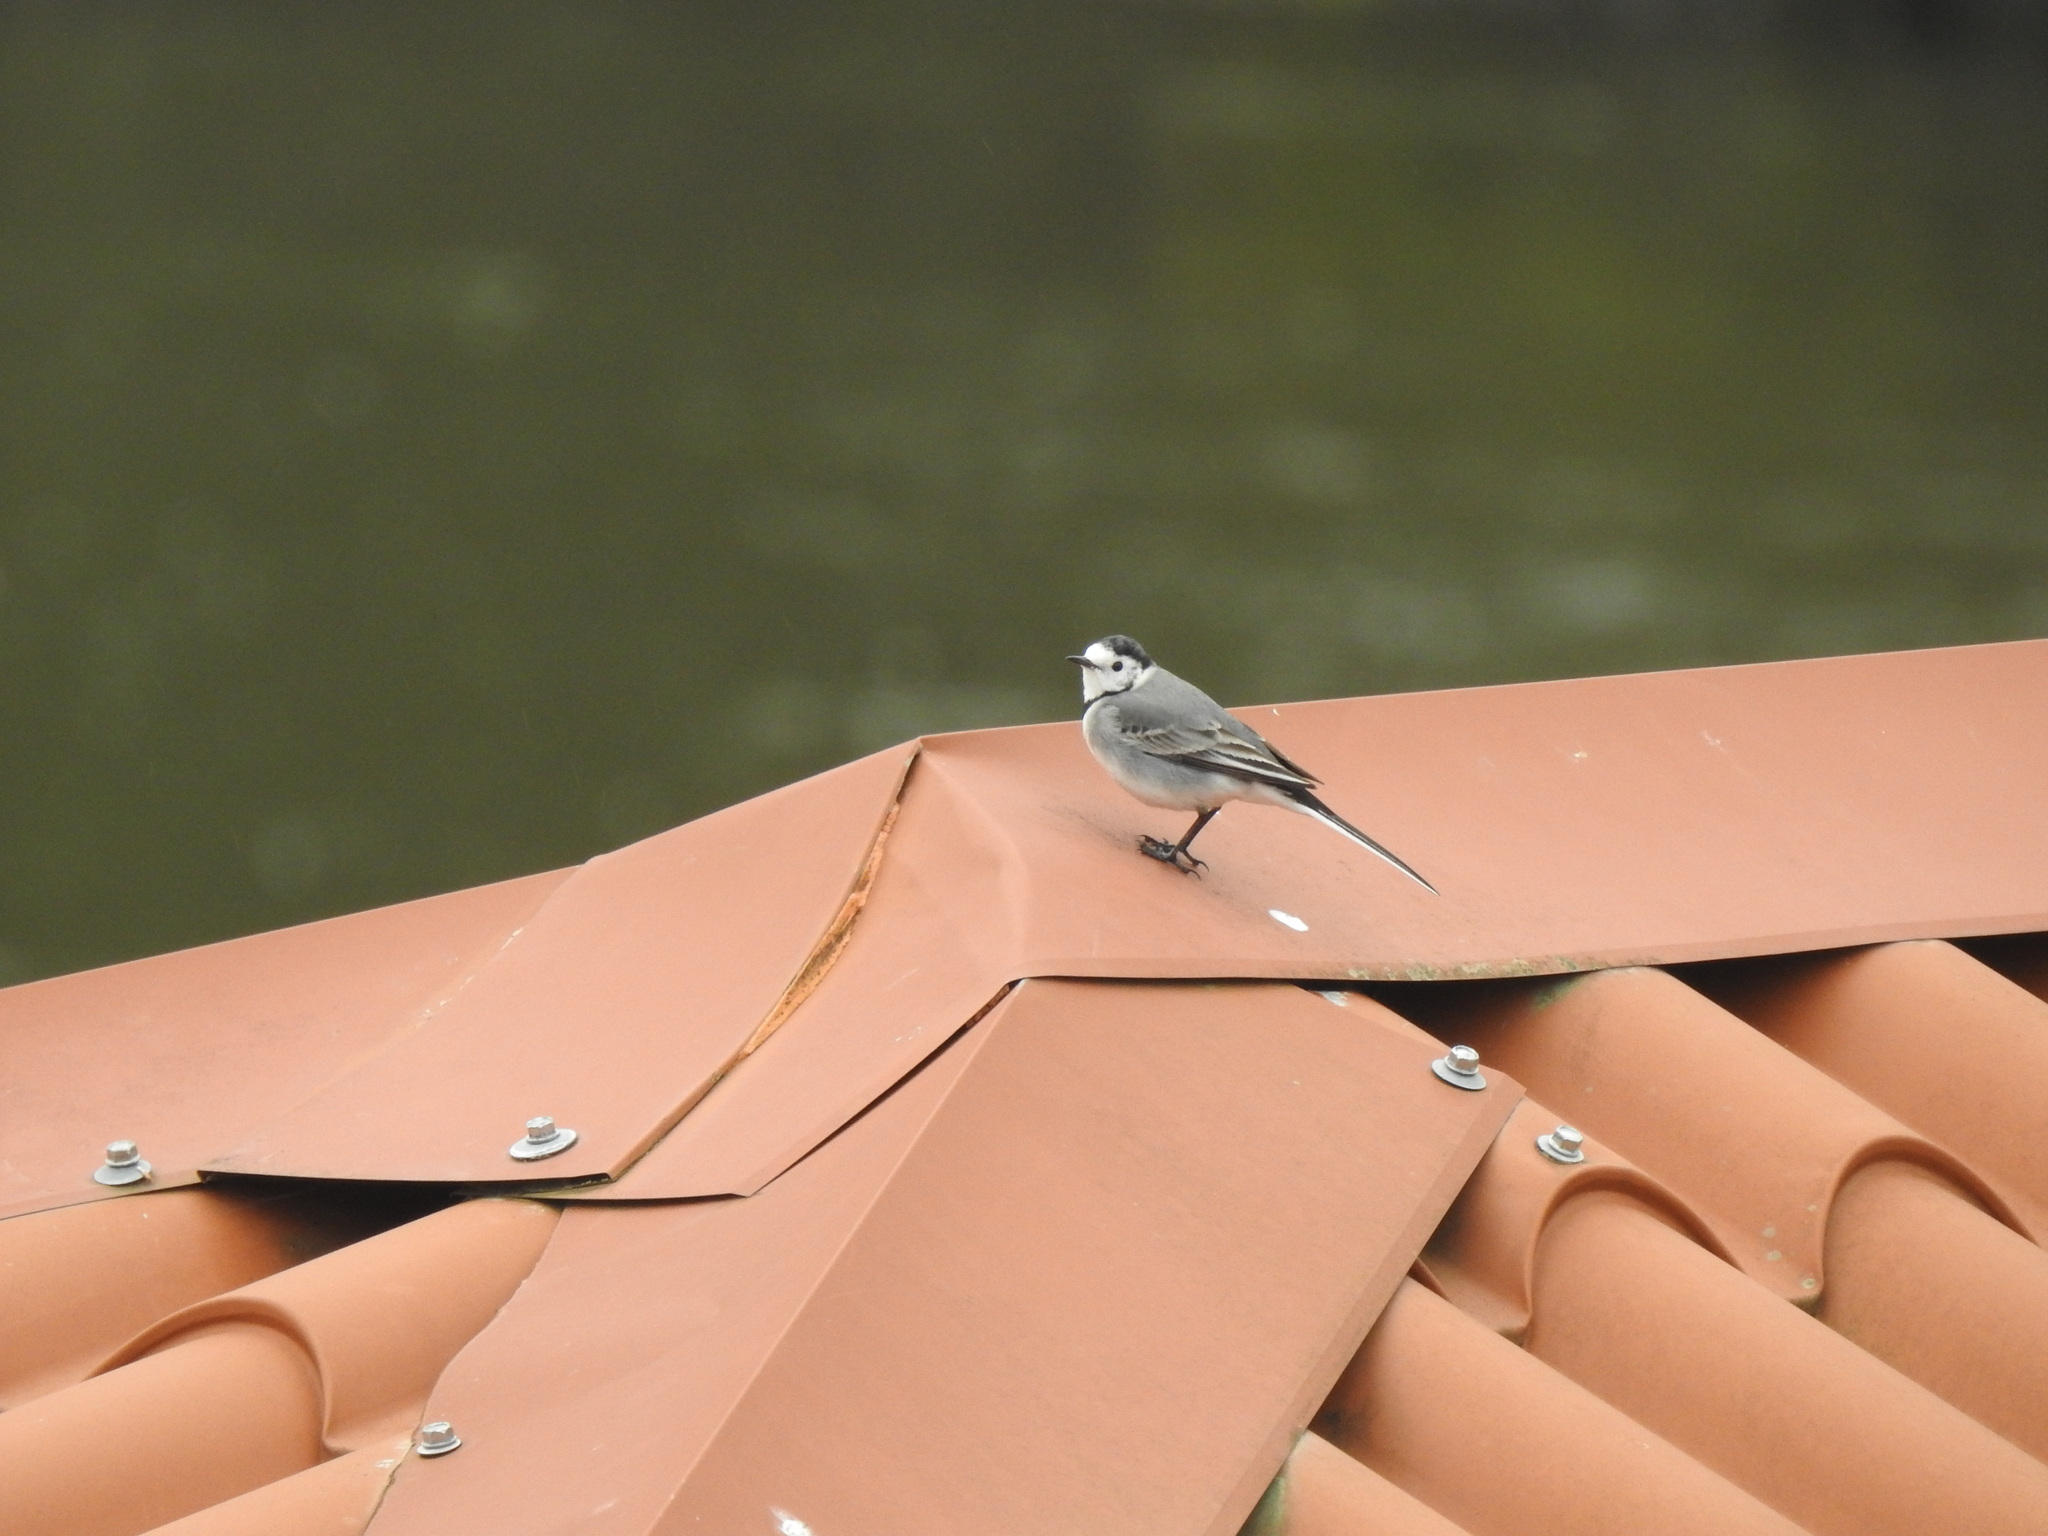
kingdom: Animalia
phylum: Chordata
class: Aves
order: Passeriformes
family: Motacillidae
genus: Motacilla
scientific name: Motacilla alba
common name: White wagtail
